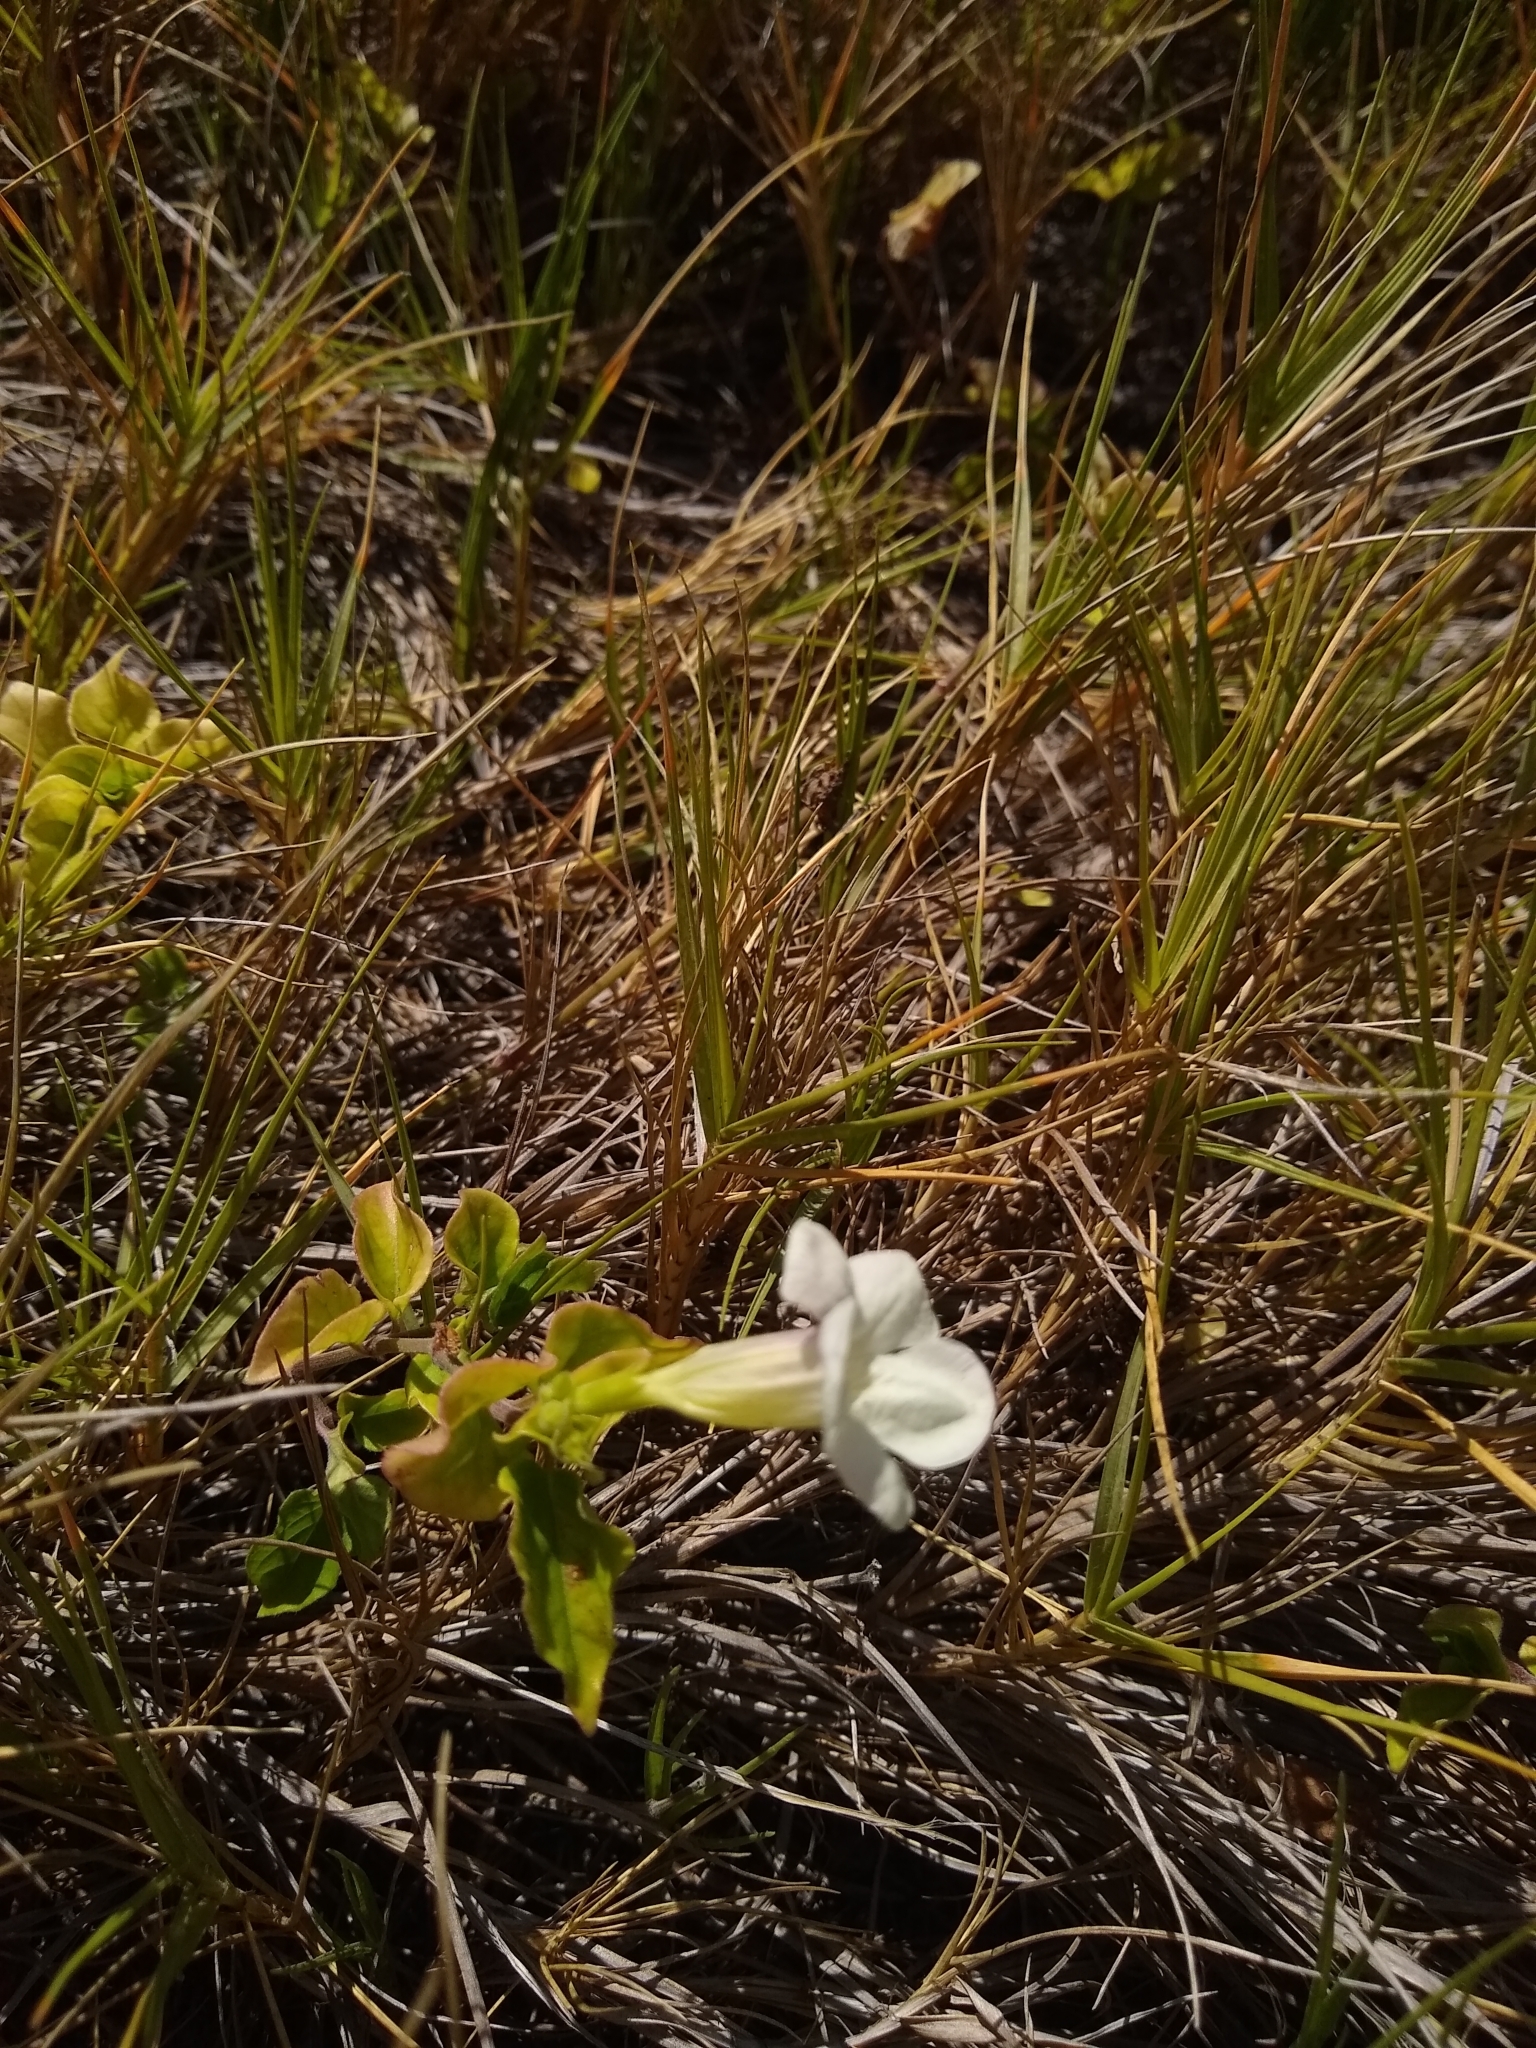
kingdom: Plantae
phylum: Tracheophyta
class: Magnoliopsida
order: Lamiales
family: Acanthaceae
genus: Asystasia
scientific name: Asystasia gangetica
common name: Chinese violet
